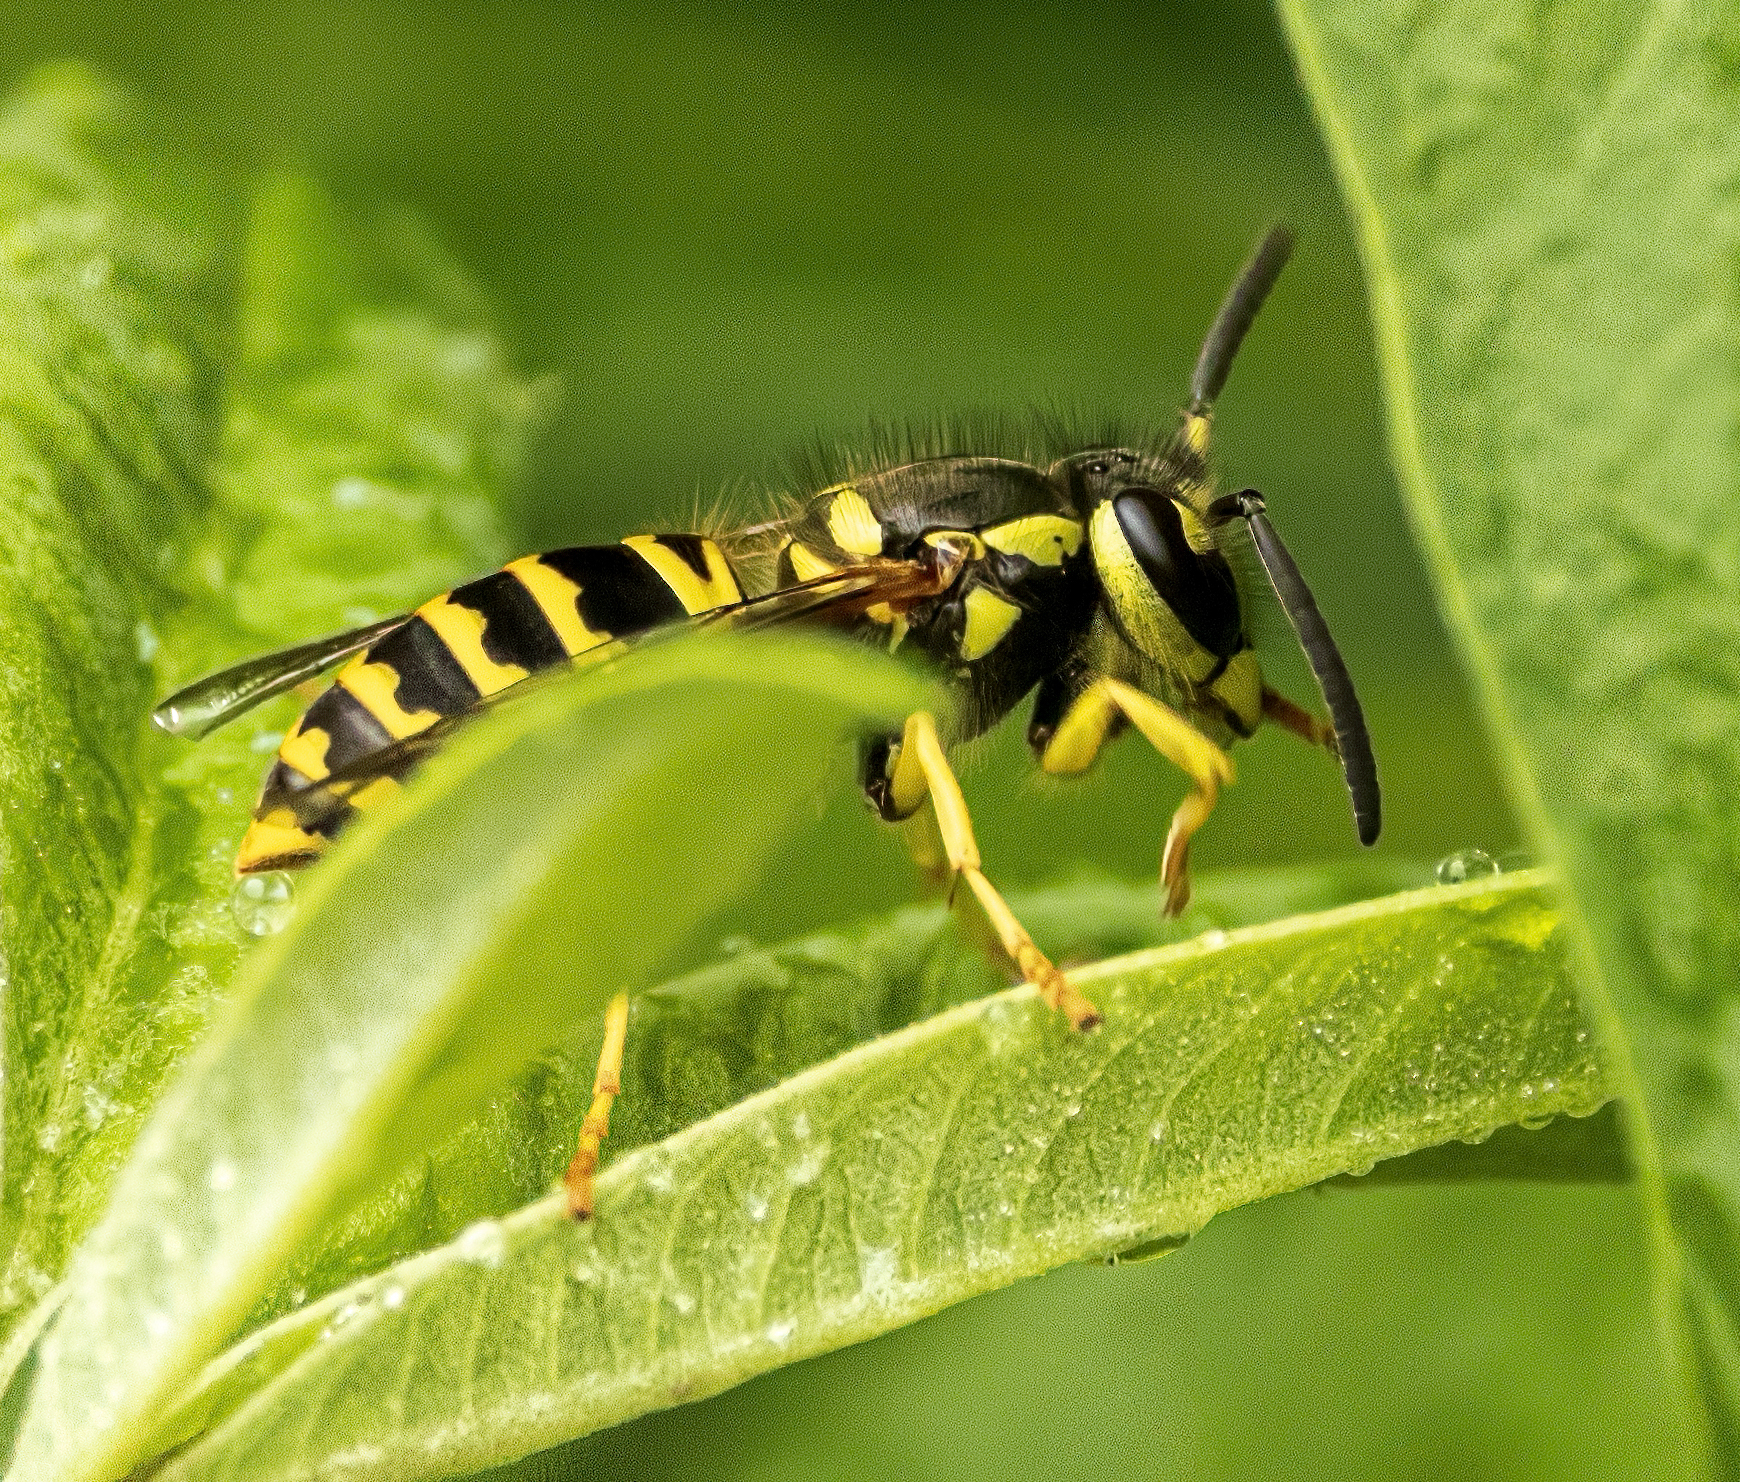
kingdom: Animalia
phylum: Arthropoda
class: Insecta
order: Hymenoptera
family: Vespidae
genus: Vespula
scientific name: Vespula maculifrons
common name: Eastern yellowjacket
